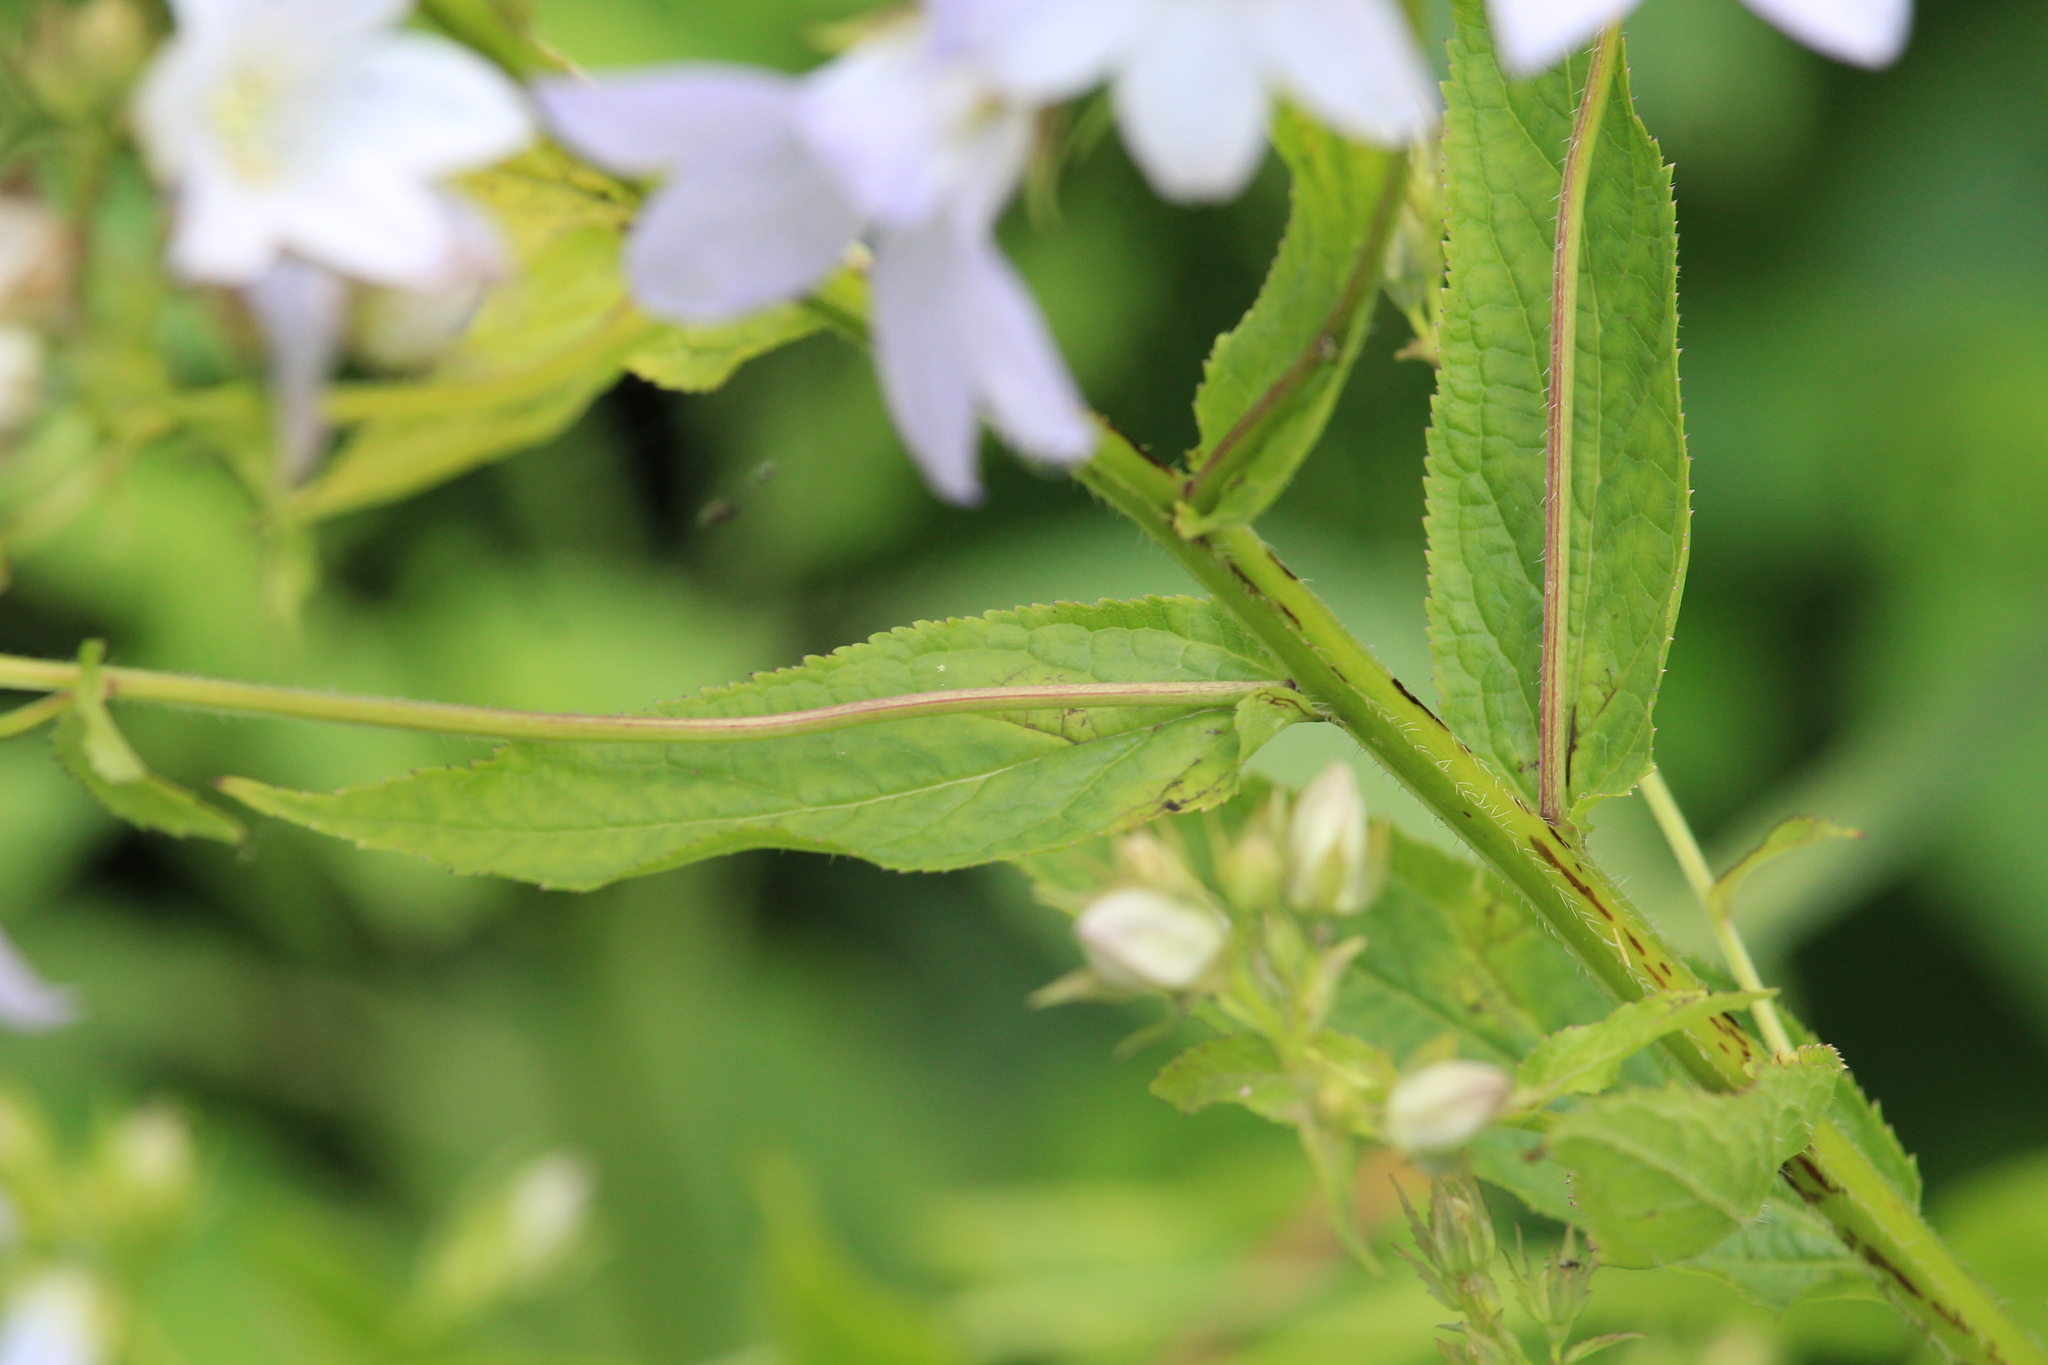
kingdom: Plantae
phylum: Tracheophyta
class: Magnoliopsida
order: Asterales
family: Campanulaceae
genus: Campanula
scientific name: Campanula lactiflora
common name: Milky bellflower
